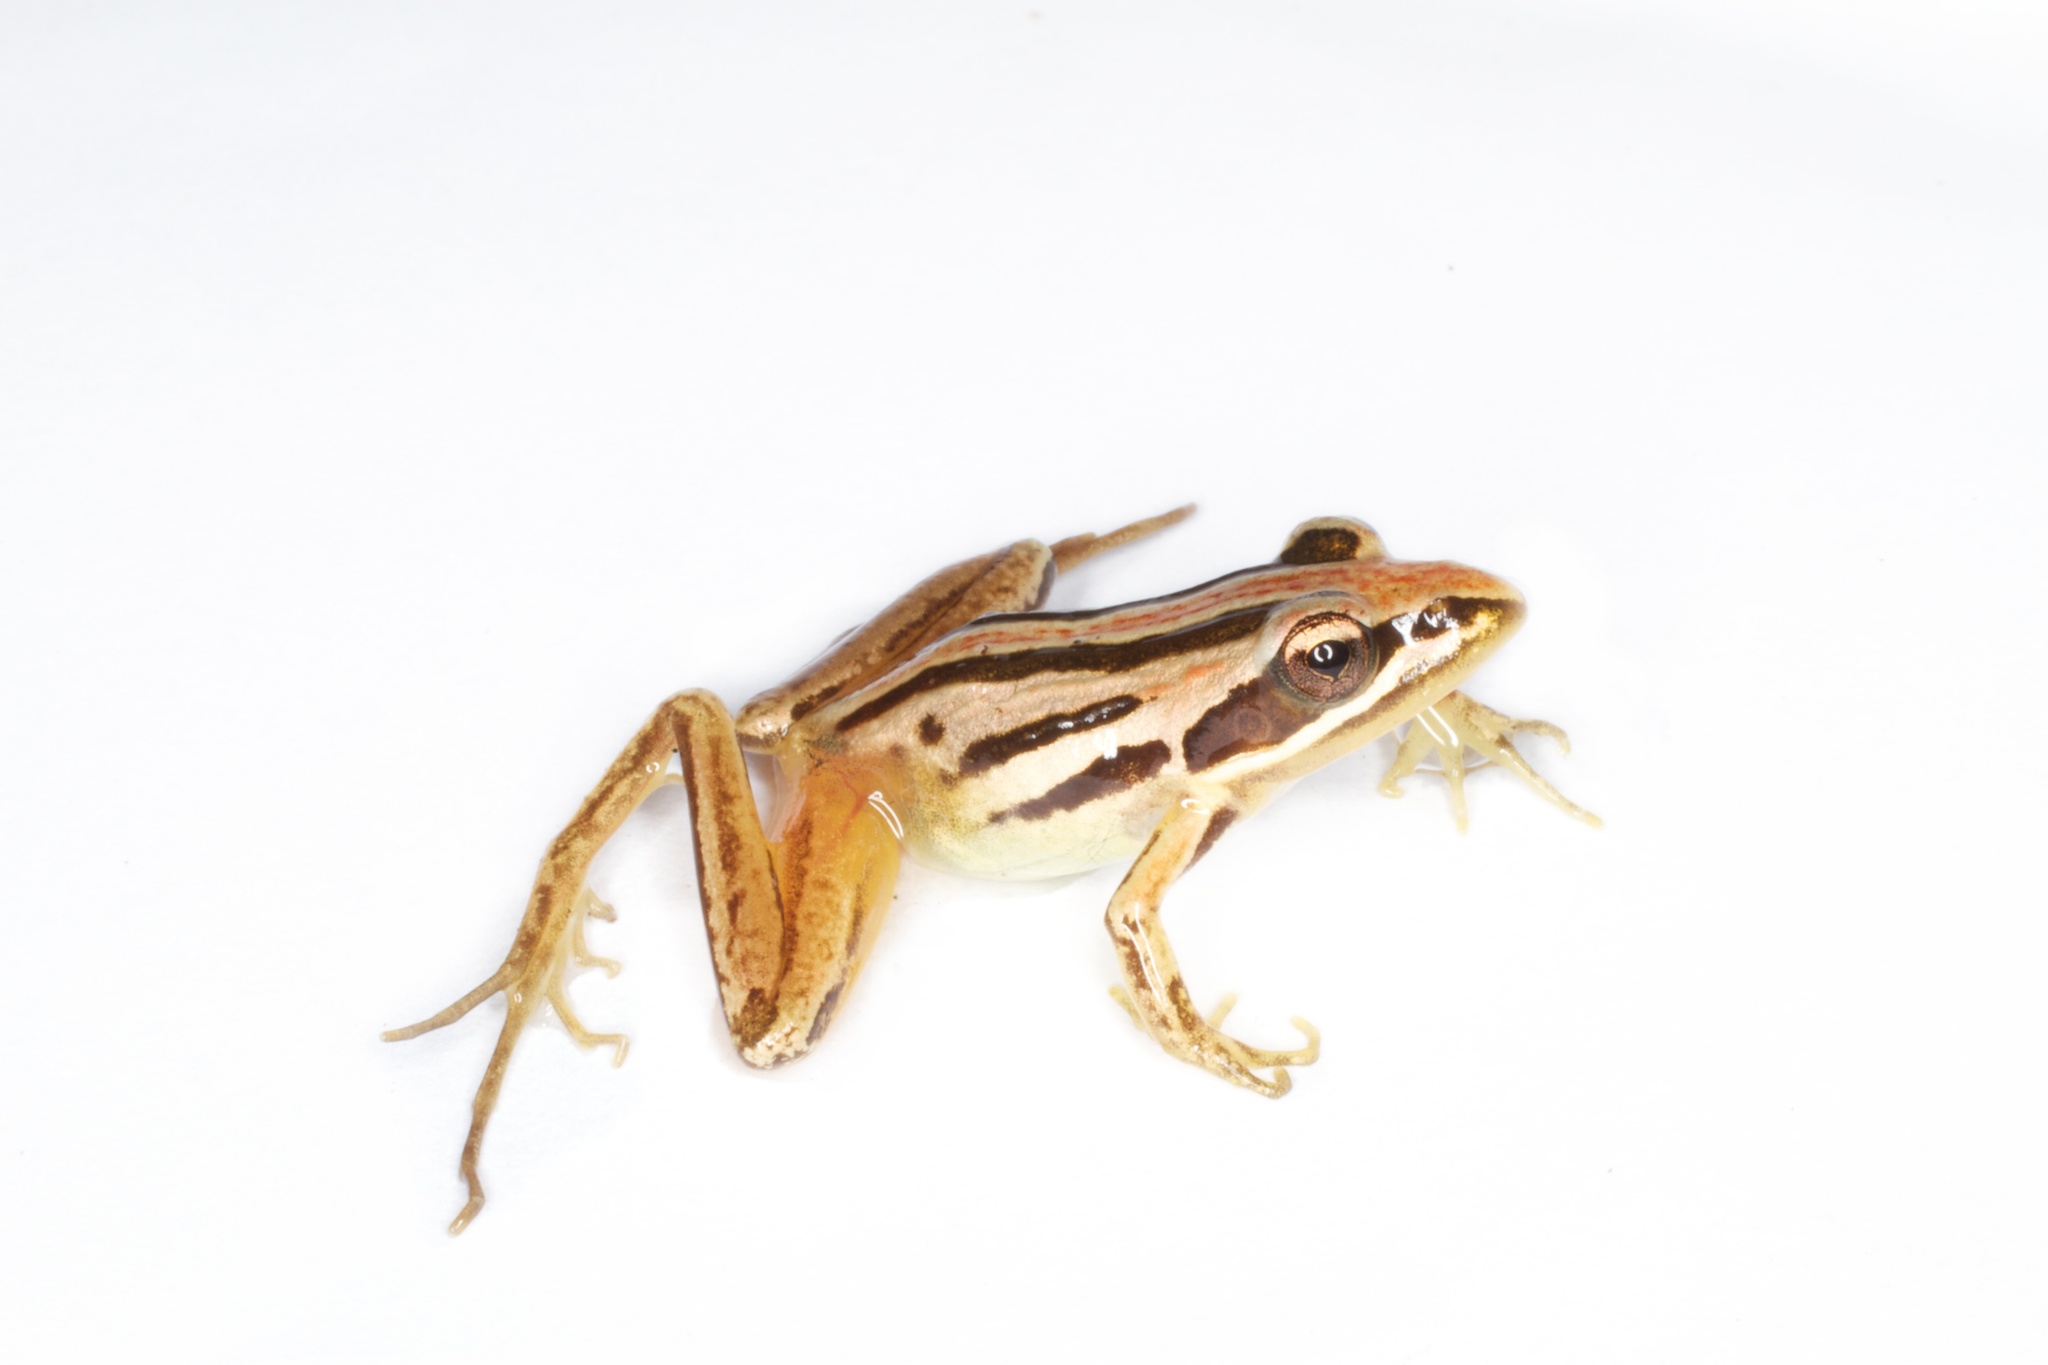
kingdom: Animalia
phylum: Chordata
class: Amphibia
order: Anura
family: Pyxicephalidae
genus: Strongylopus
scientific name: Strongylopus fasciatus
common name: Striped stream frog
